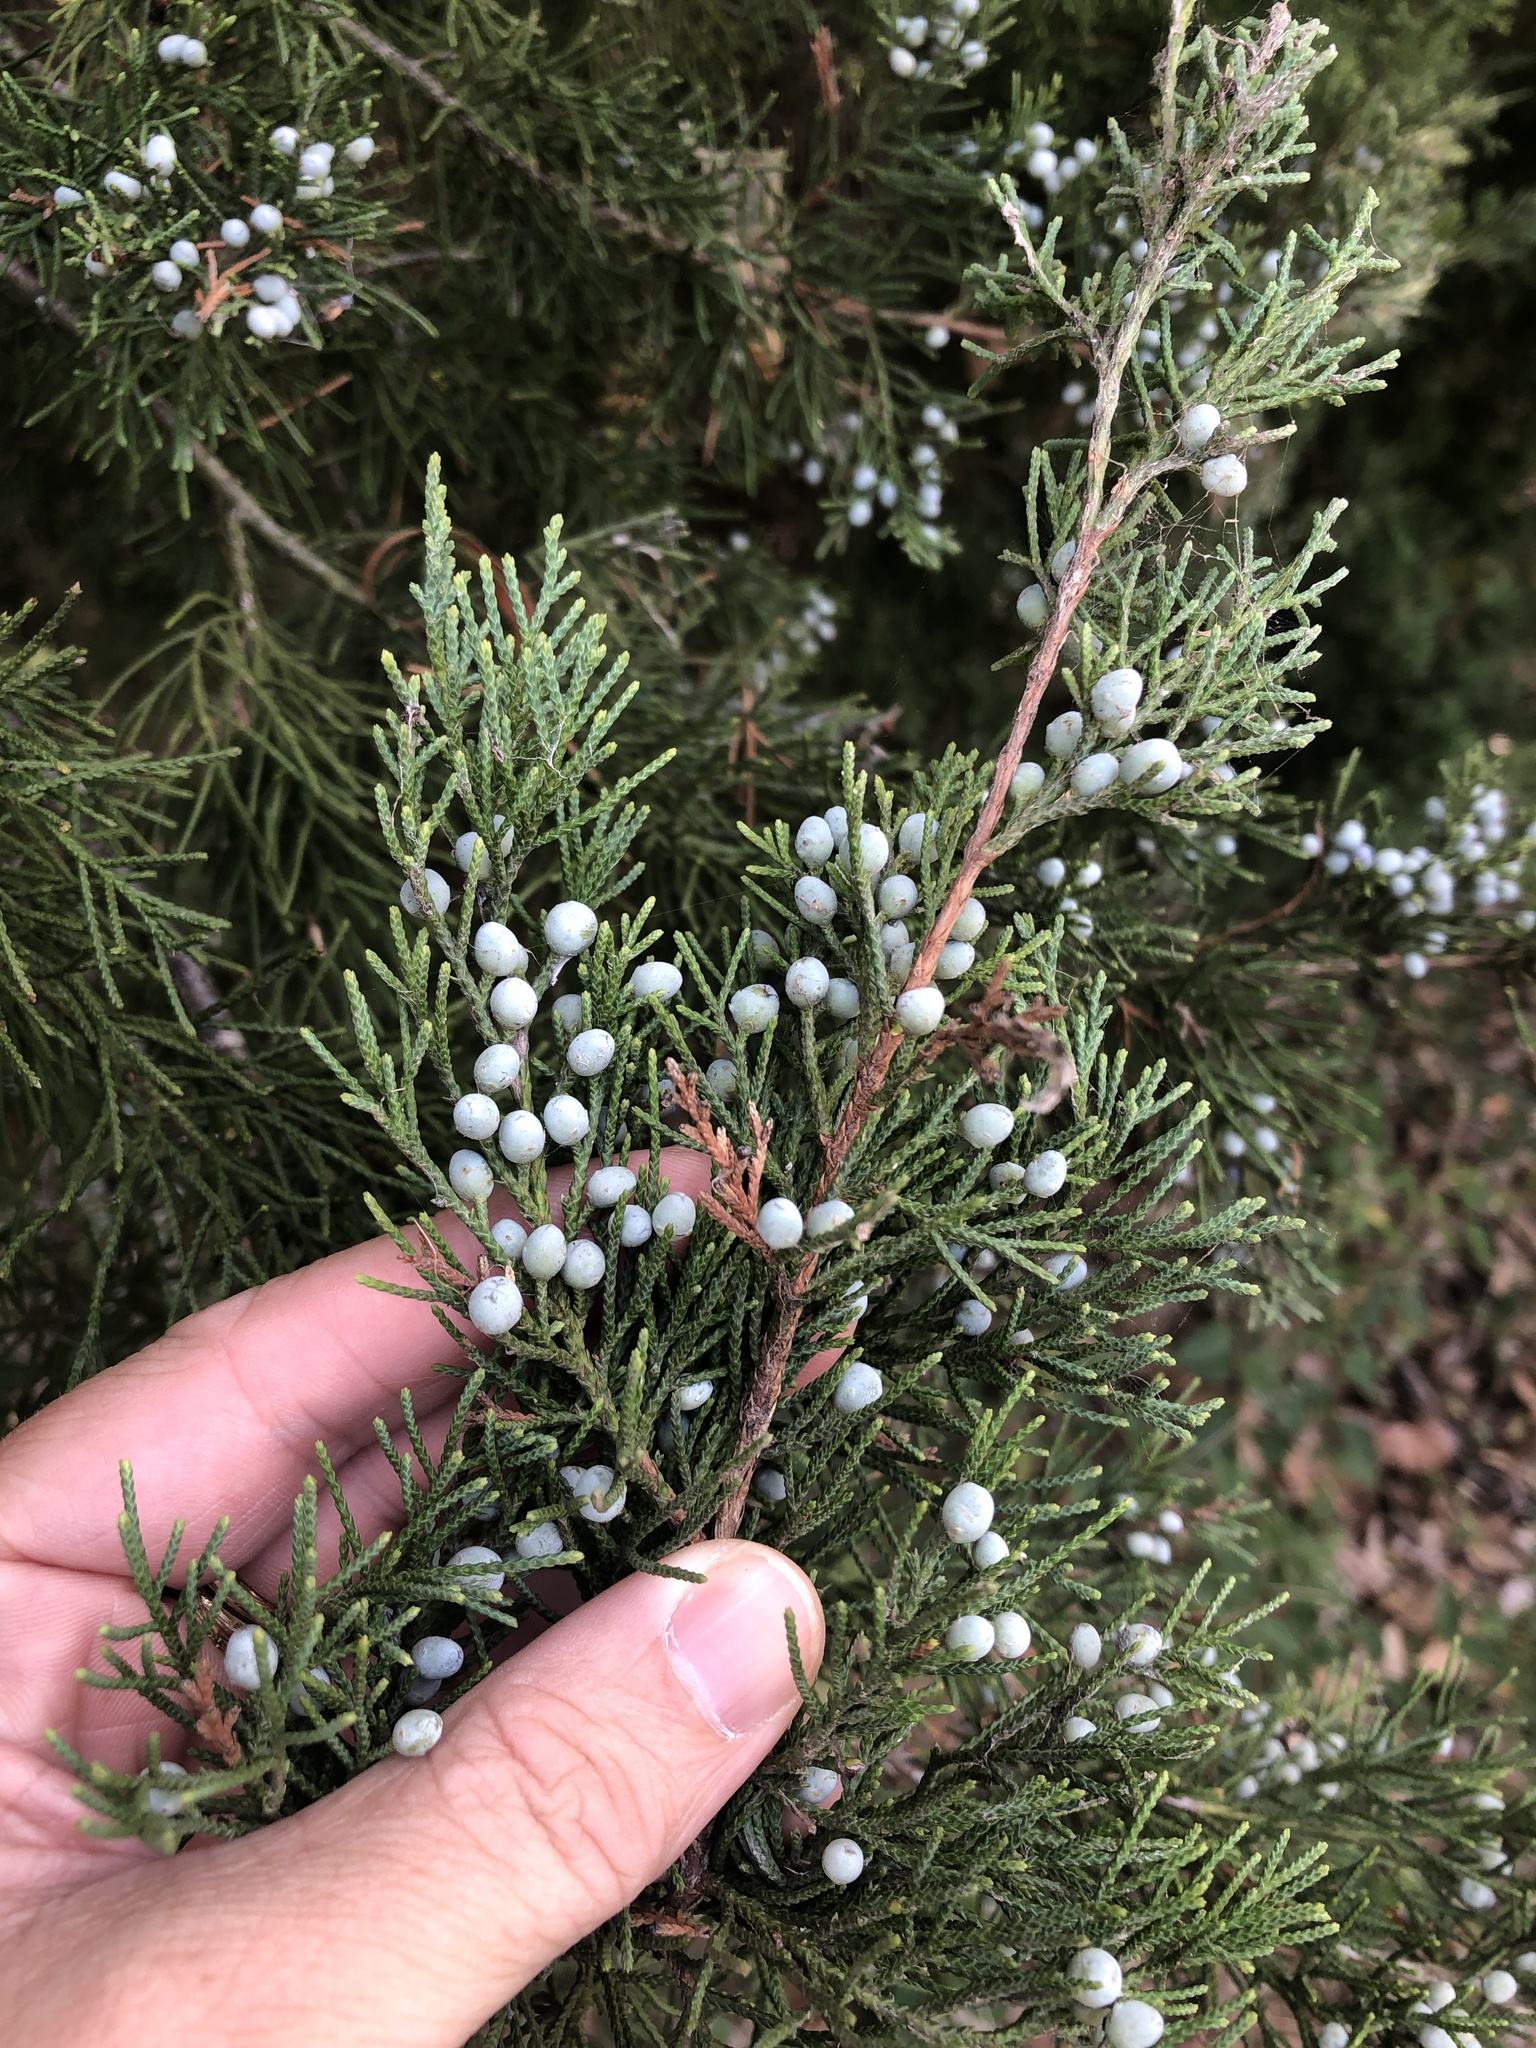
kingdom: Plantae
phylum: Tracheophyta
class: Pinopsida
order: Pinales
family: Cupressaceae
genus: Juniperus
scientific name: Juniperus virginiana
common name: Red juniper
